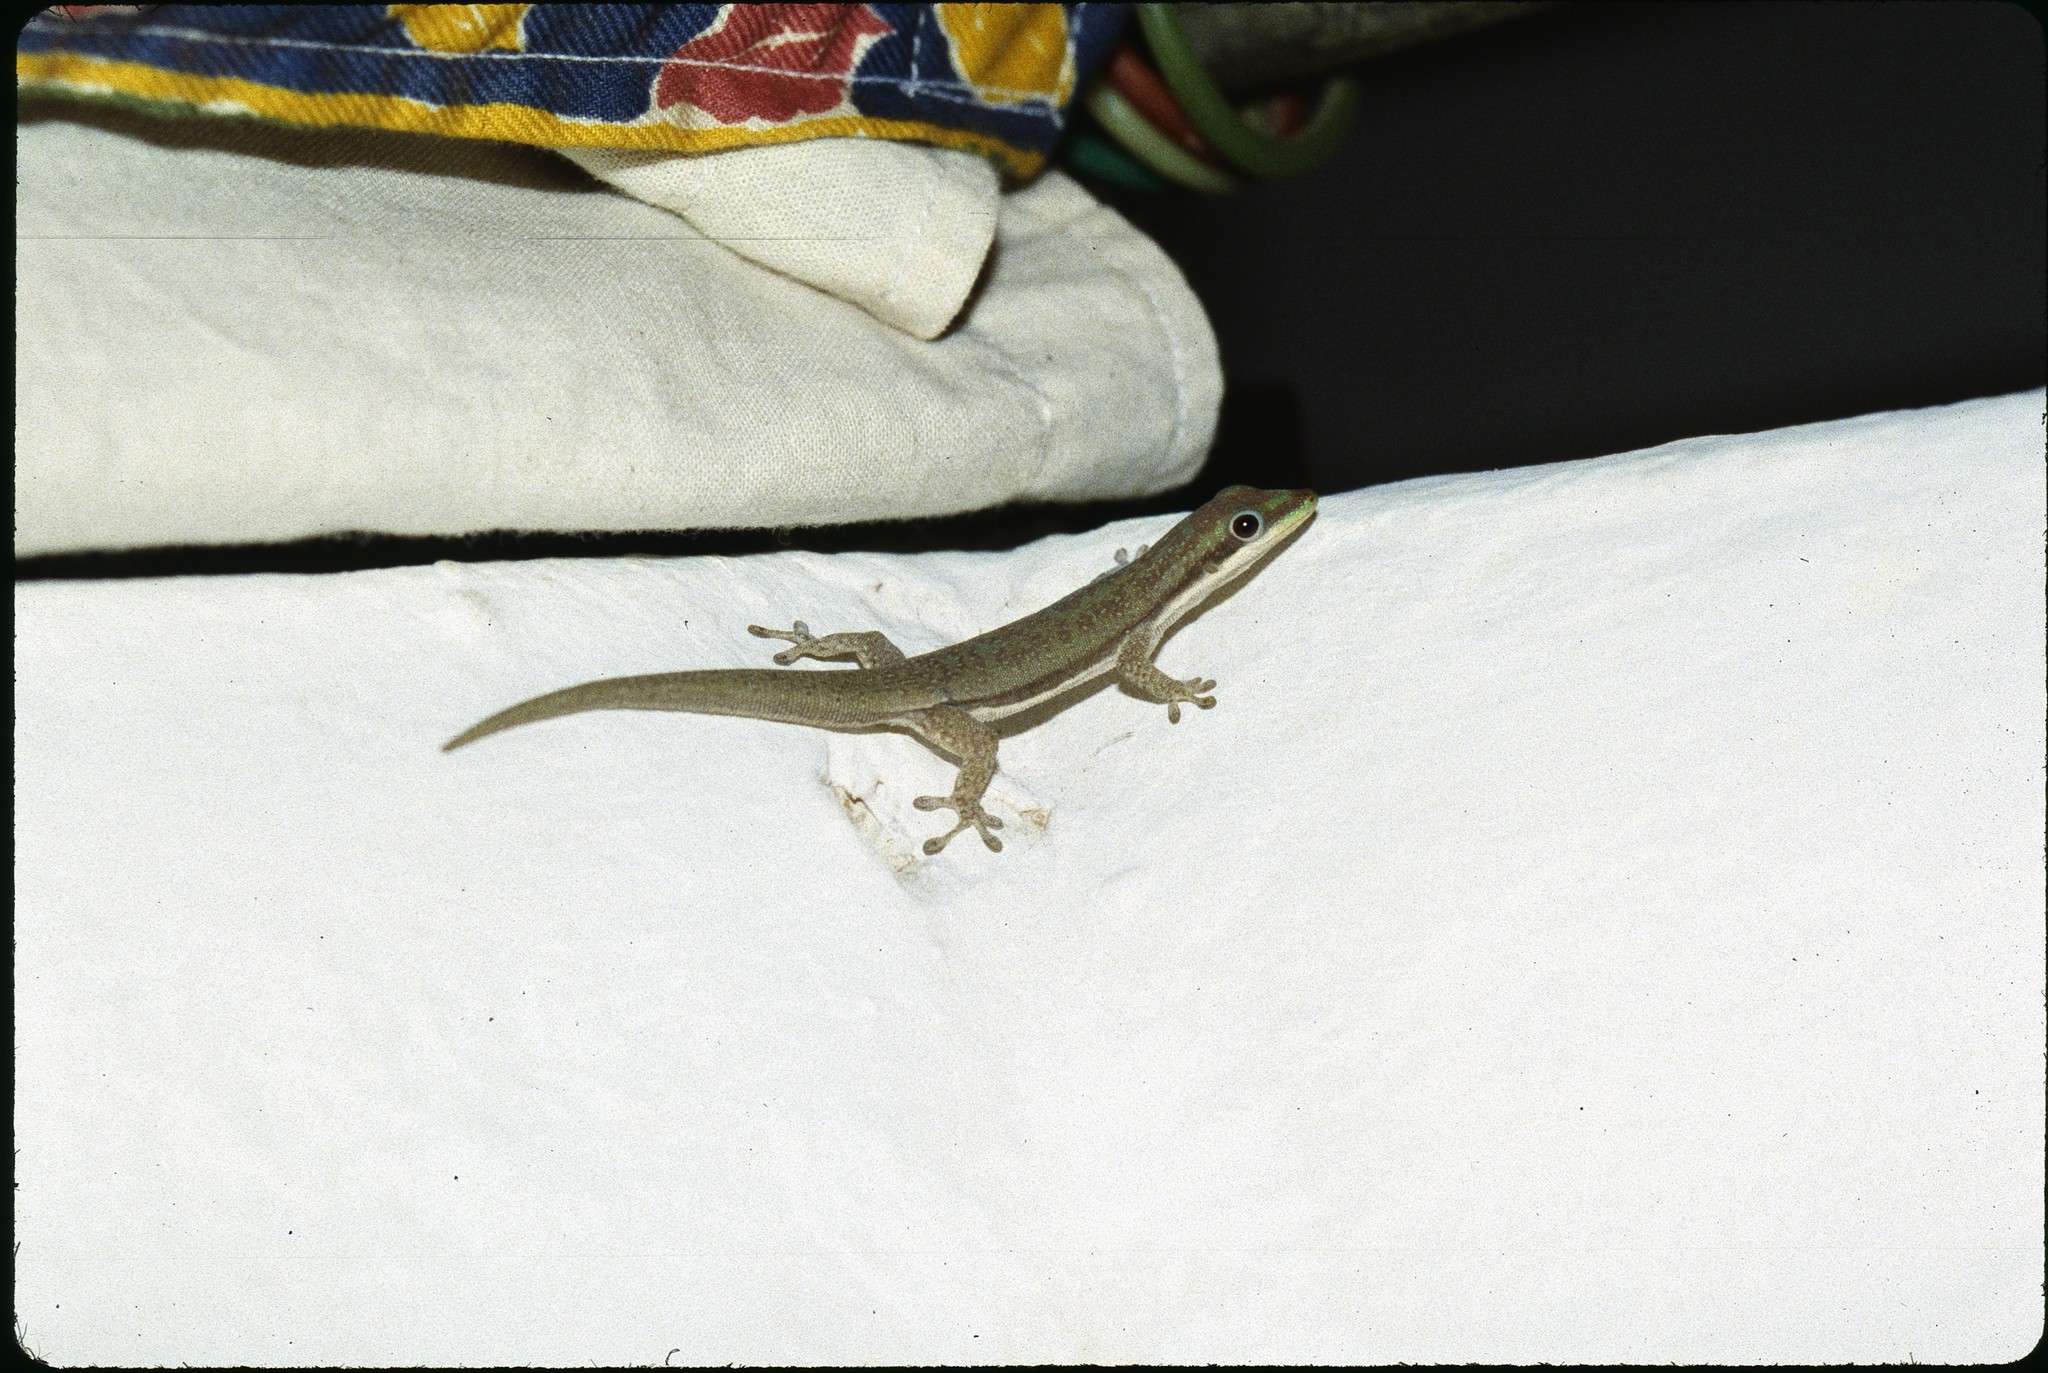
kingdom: Animalia
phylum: Chordata
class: Squamata
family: Gekkonidae
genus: Phelsuma
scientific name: Phelsuma modesta
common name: Modest day gecko
